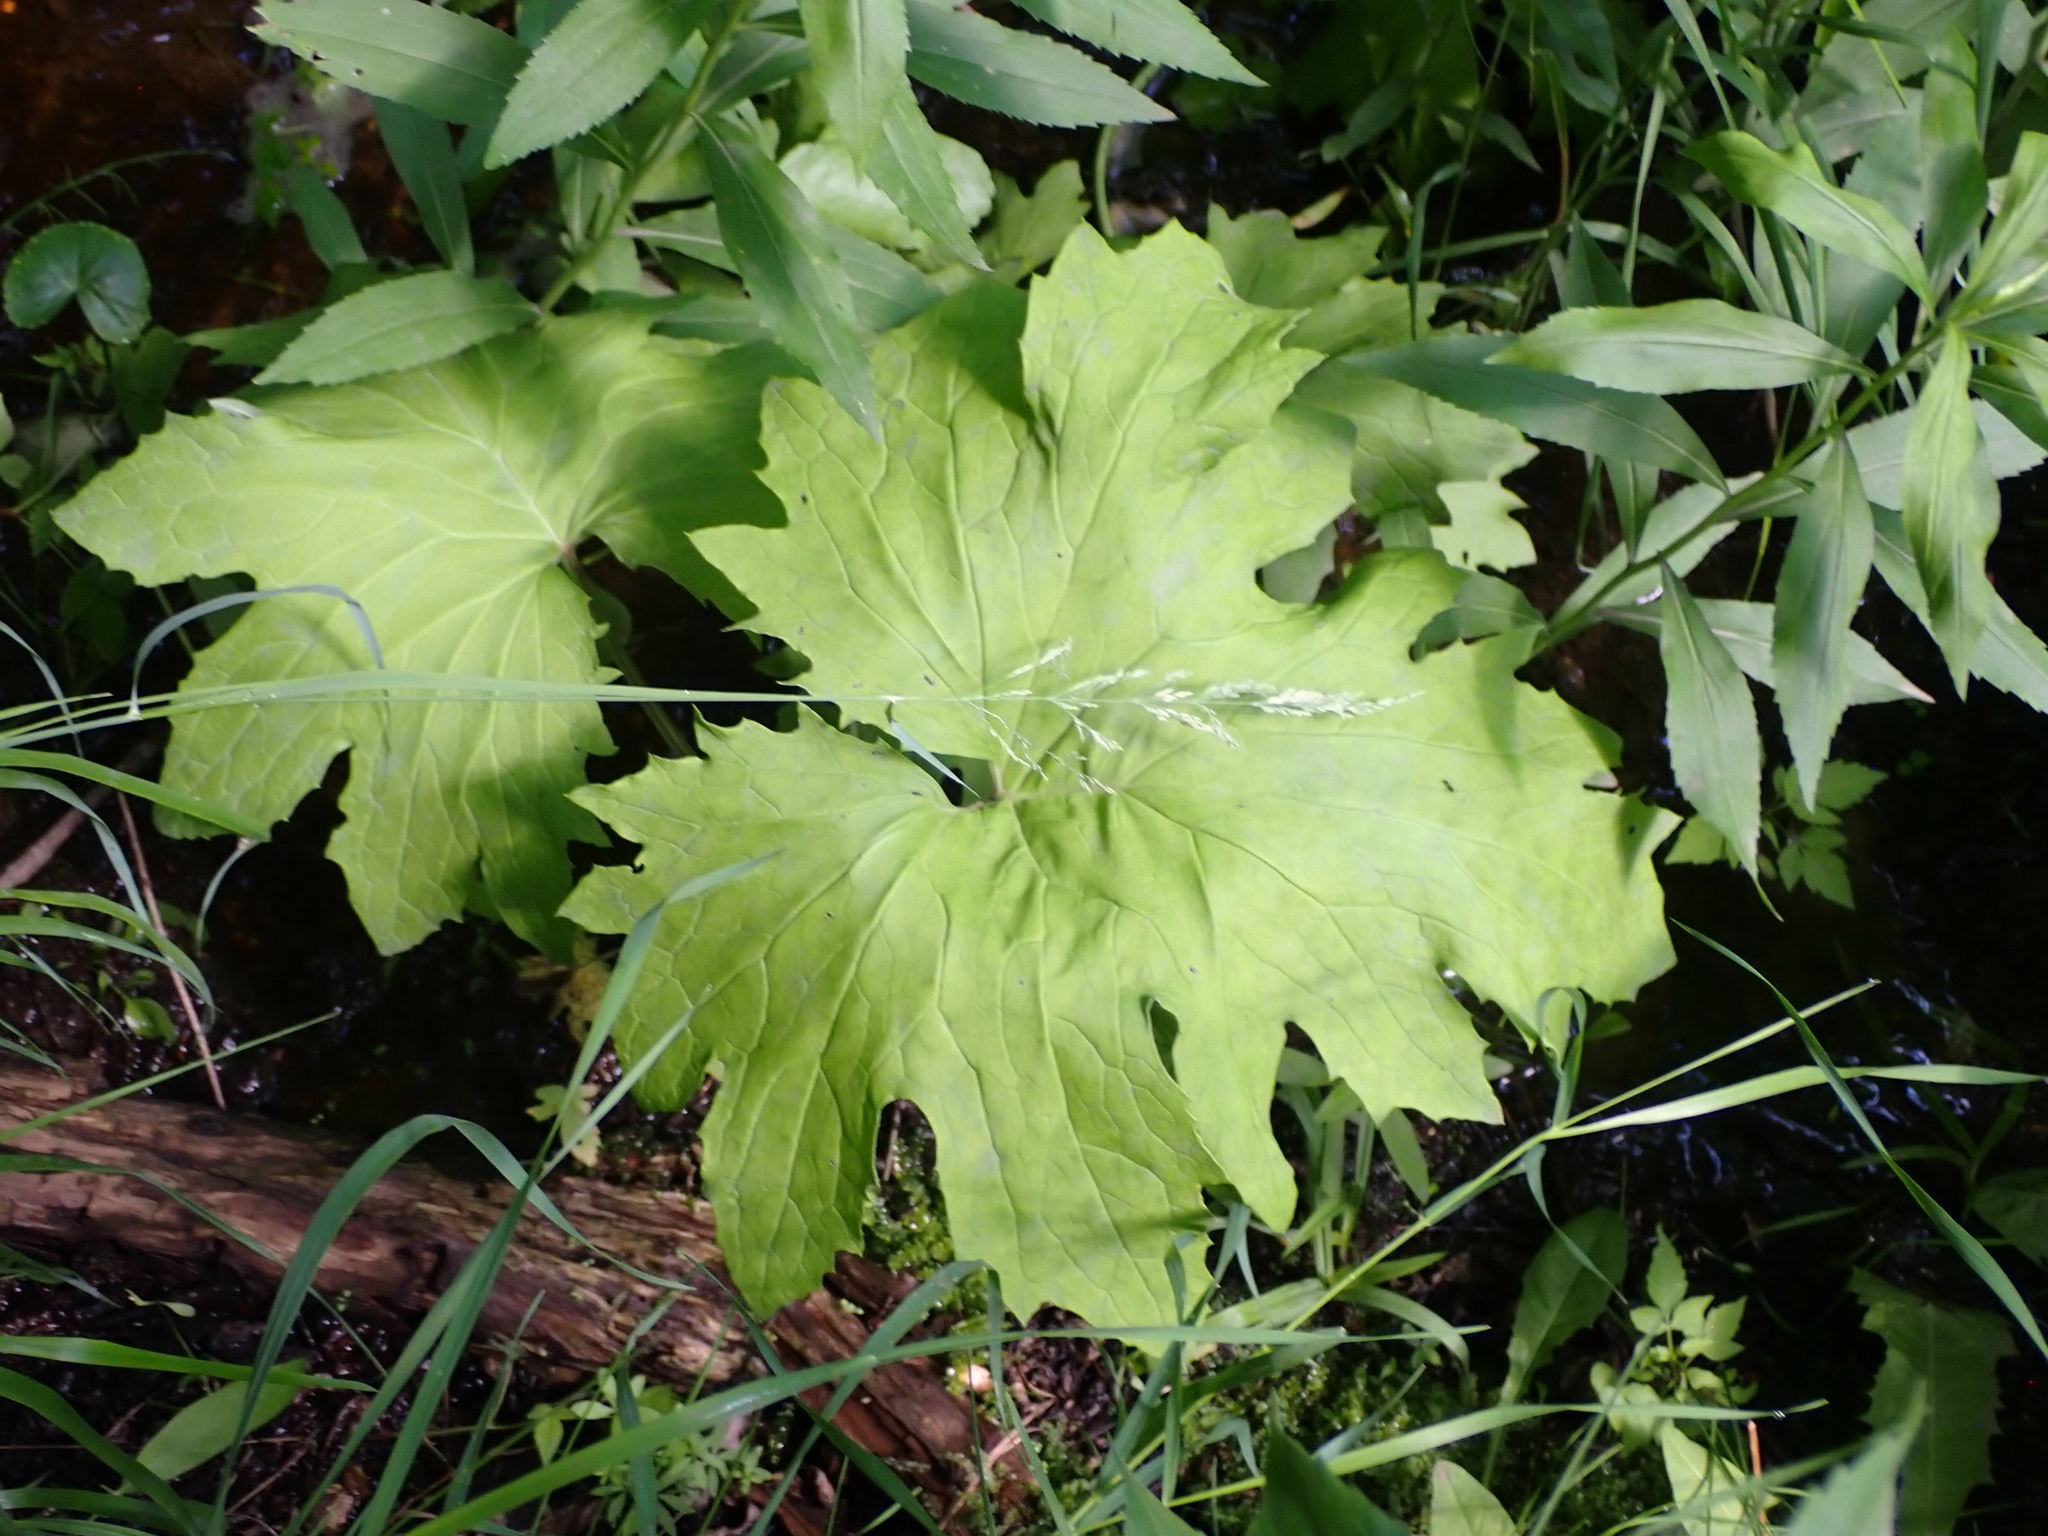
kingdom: Plantae
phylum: Tracheophyta
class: Magnoliopsida
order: Asterales
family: Asteraceae
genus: Petasites
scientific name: Petasites frigidus
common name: Arctic butterbur
